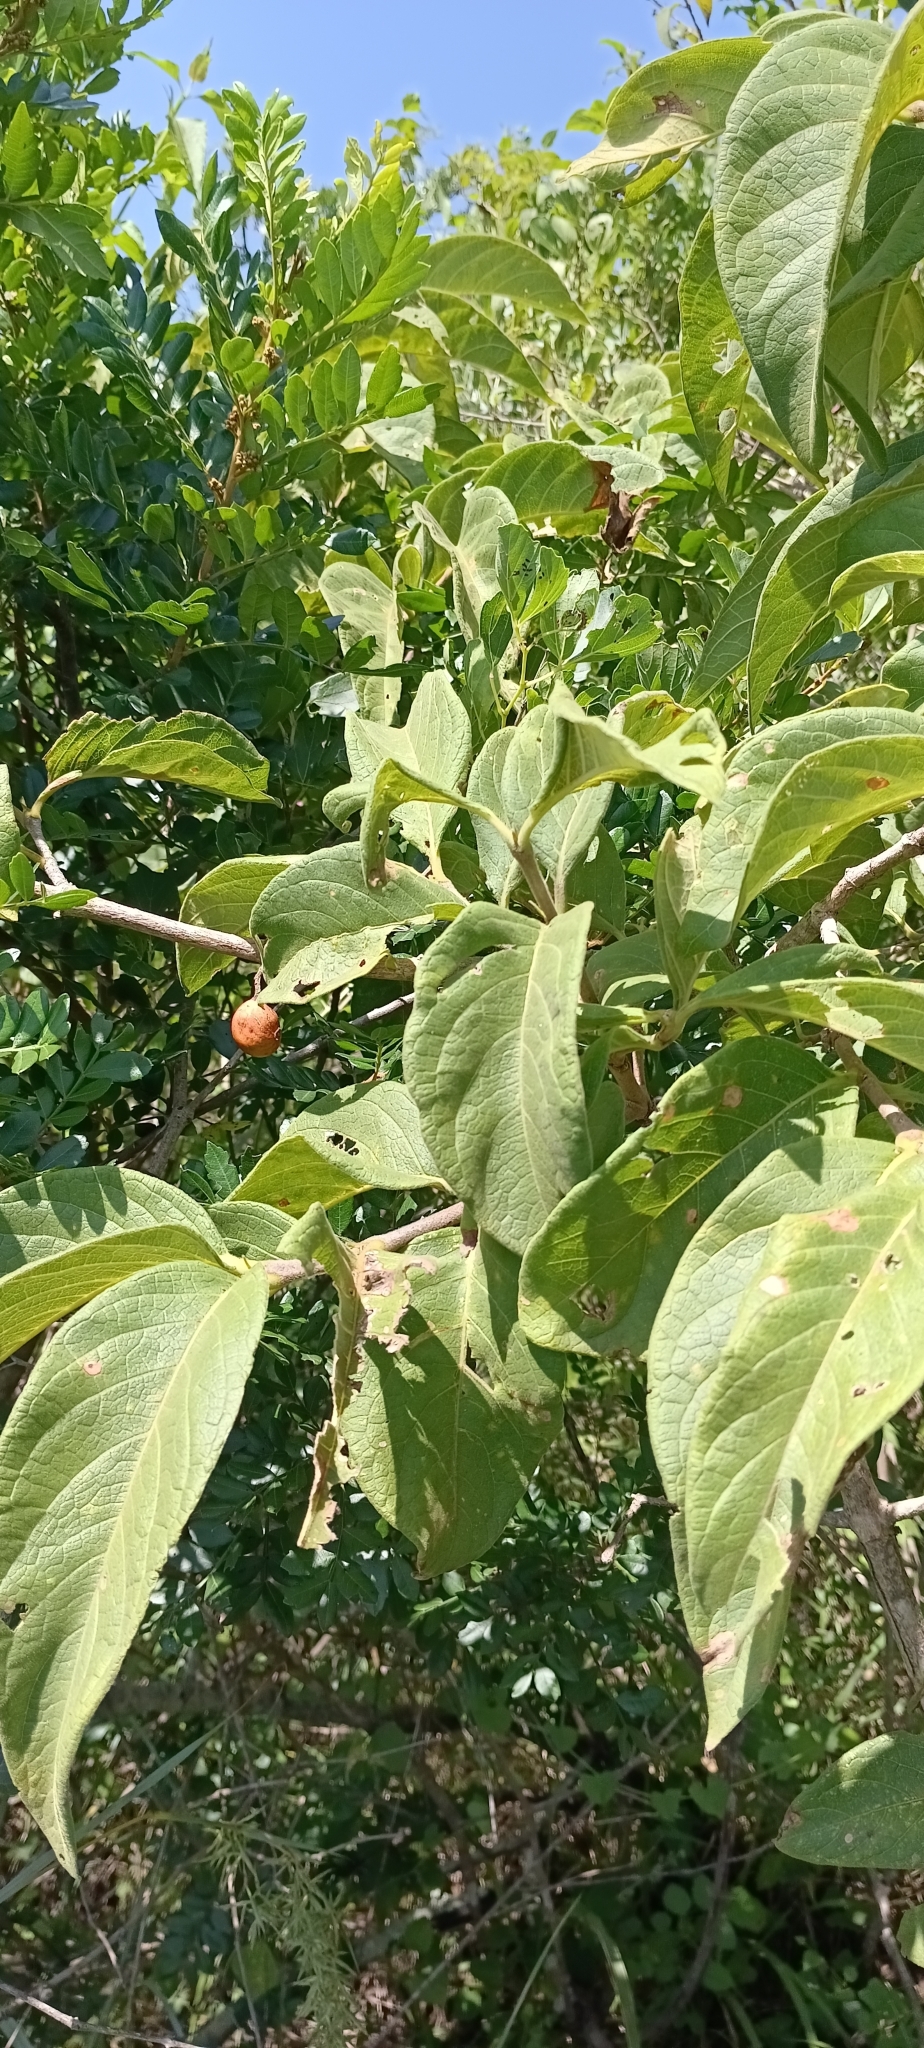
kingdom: Plantae
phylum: Tracheophyta
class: Magnoliopsida
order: Gentianales
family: Rubiaceae
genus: Vangueria
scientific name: Vangueria infausta
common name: Medlar
